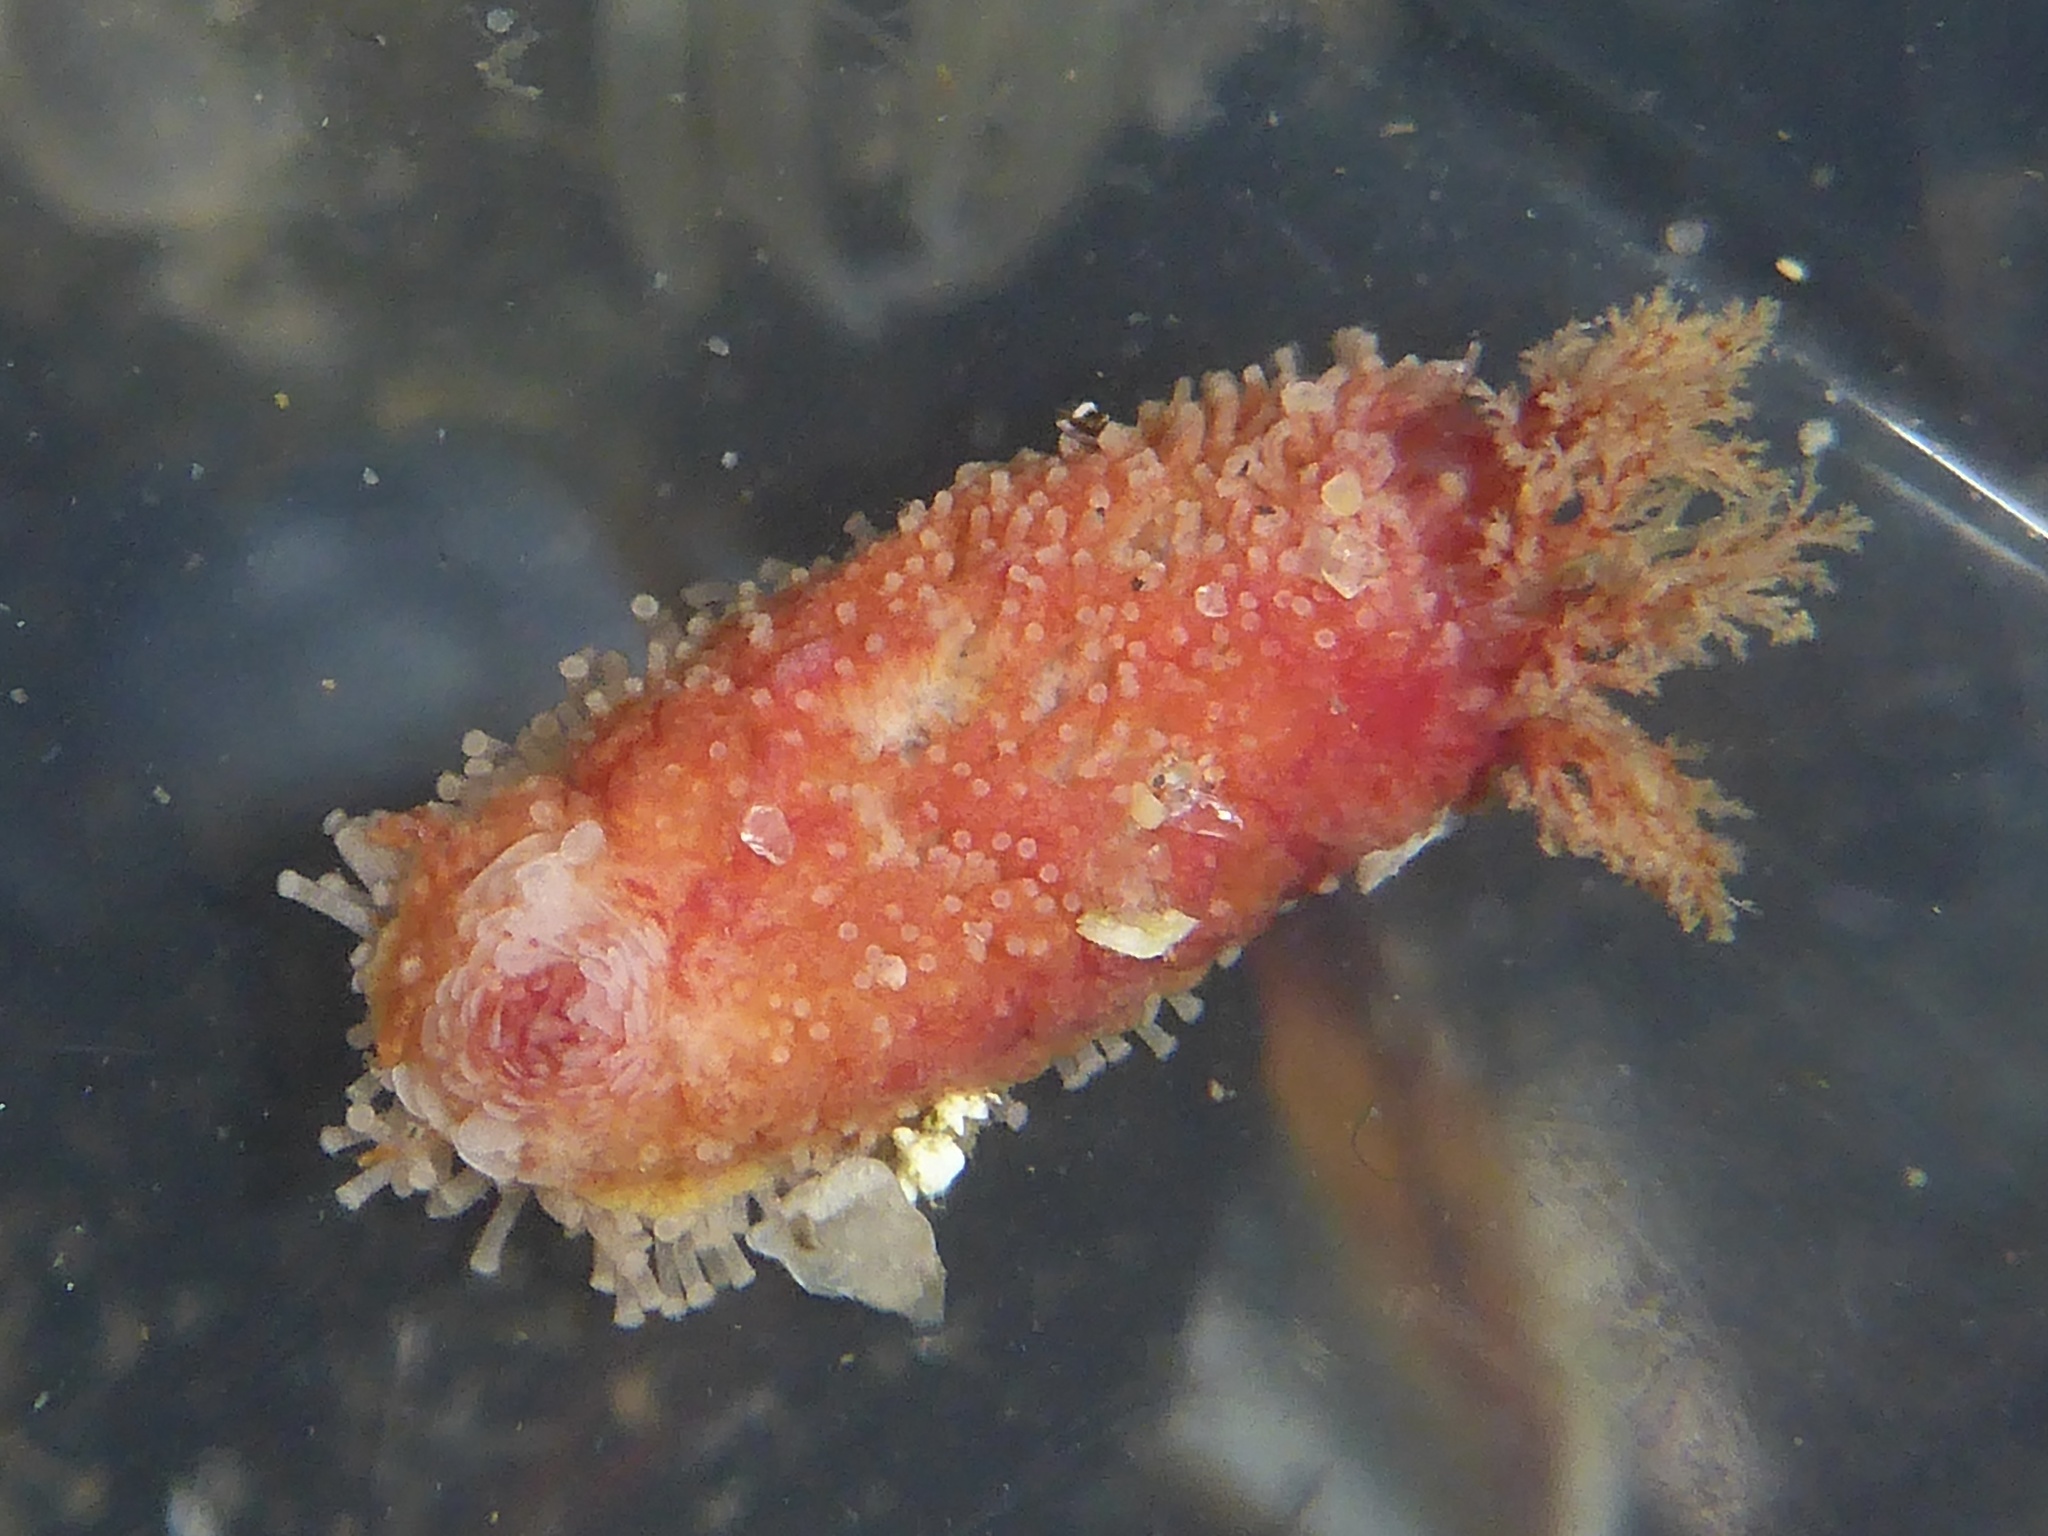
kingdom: Animalia
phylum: Echinodermata
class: Holothuroidea
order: Dendrochirotida
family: Psolidae
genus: Lissothuria
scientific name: Lissothuria nutriens
